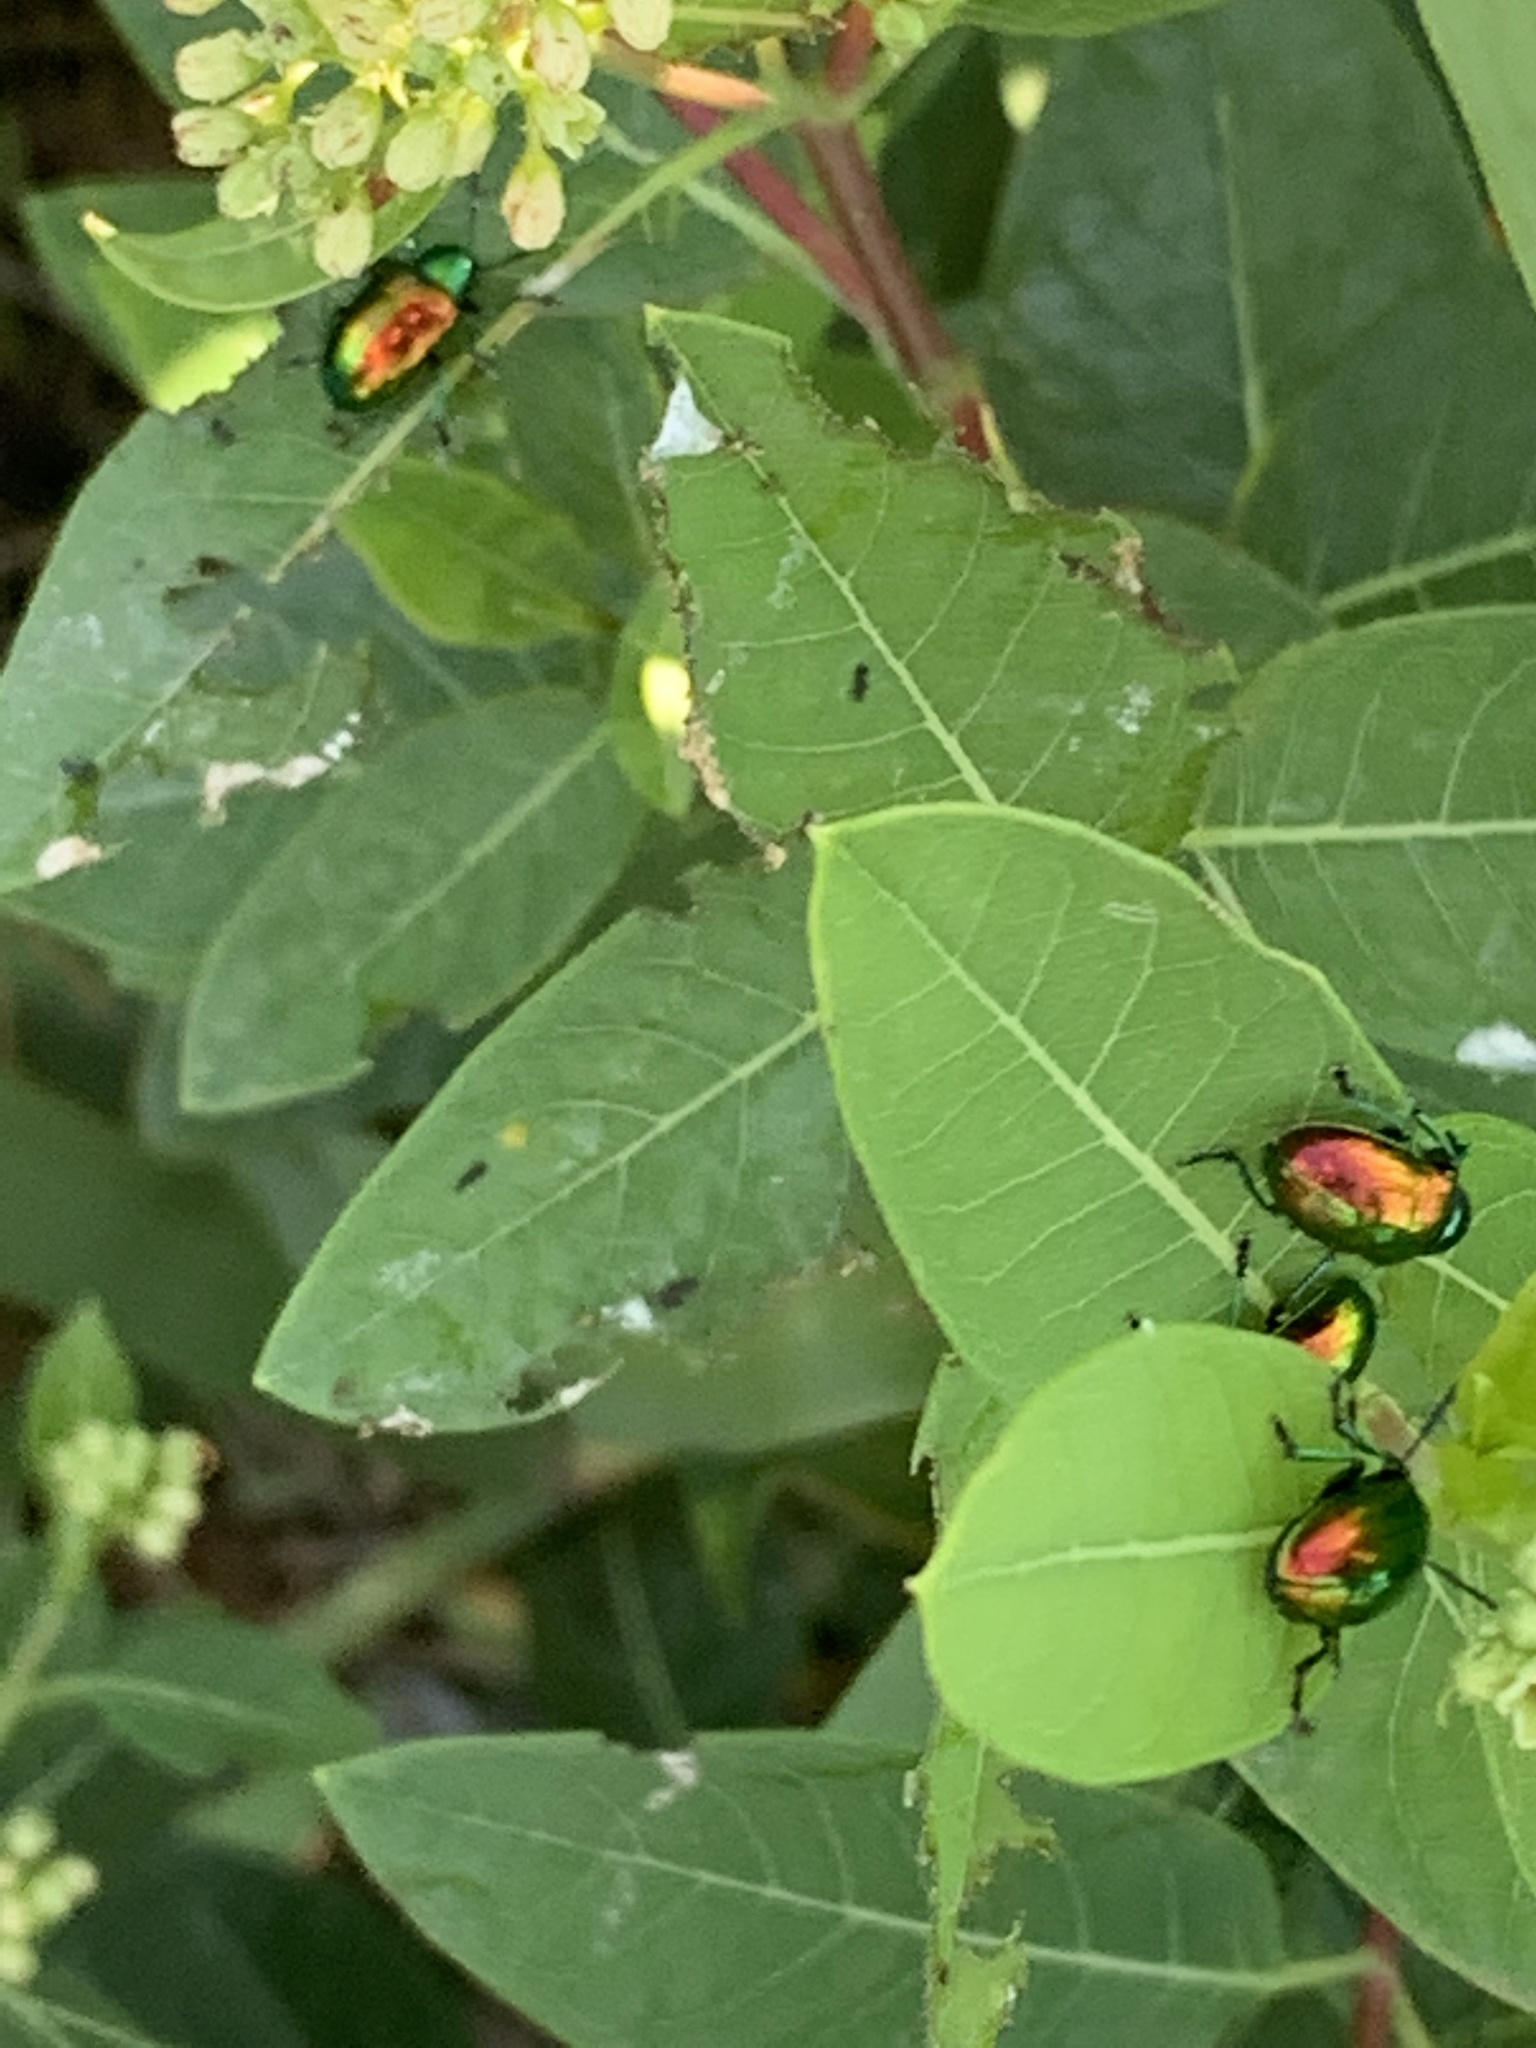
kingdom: Animalia
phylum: Arthropoda
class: Insecta
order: Coleoptera
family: Chrysomelidae
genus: Chrysochus
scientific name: Chrysochus auratus
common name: Dogbane leaf beetle
